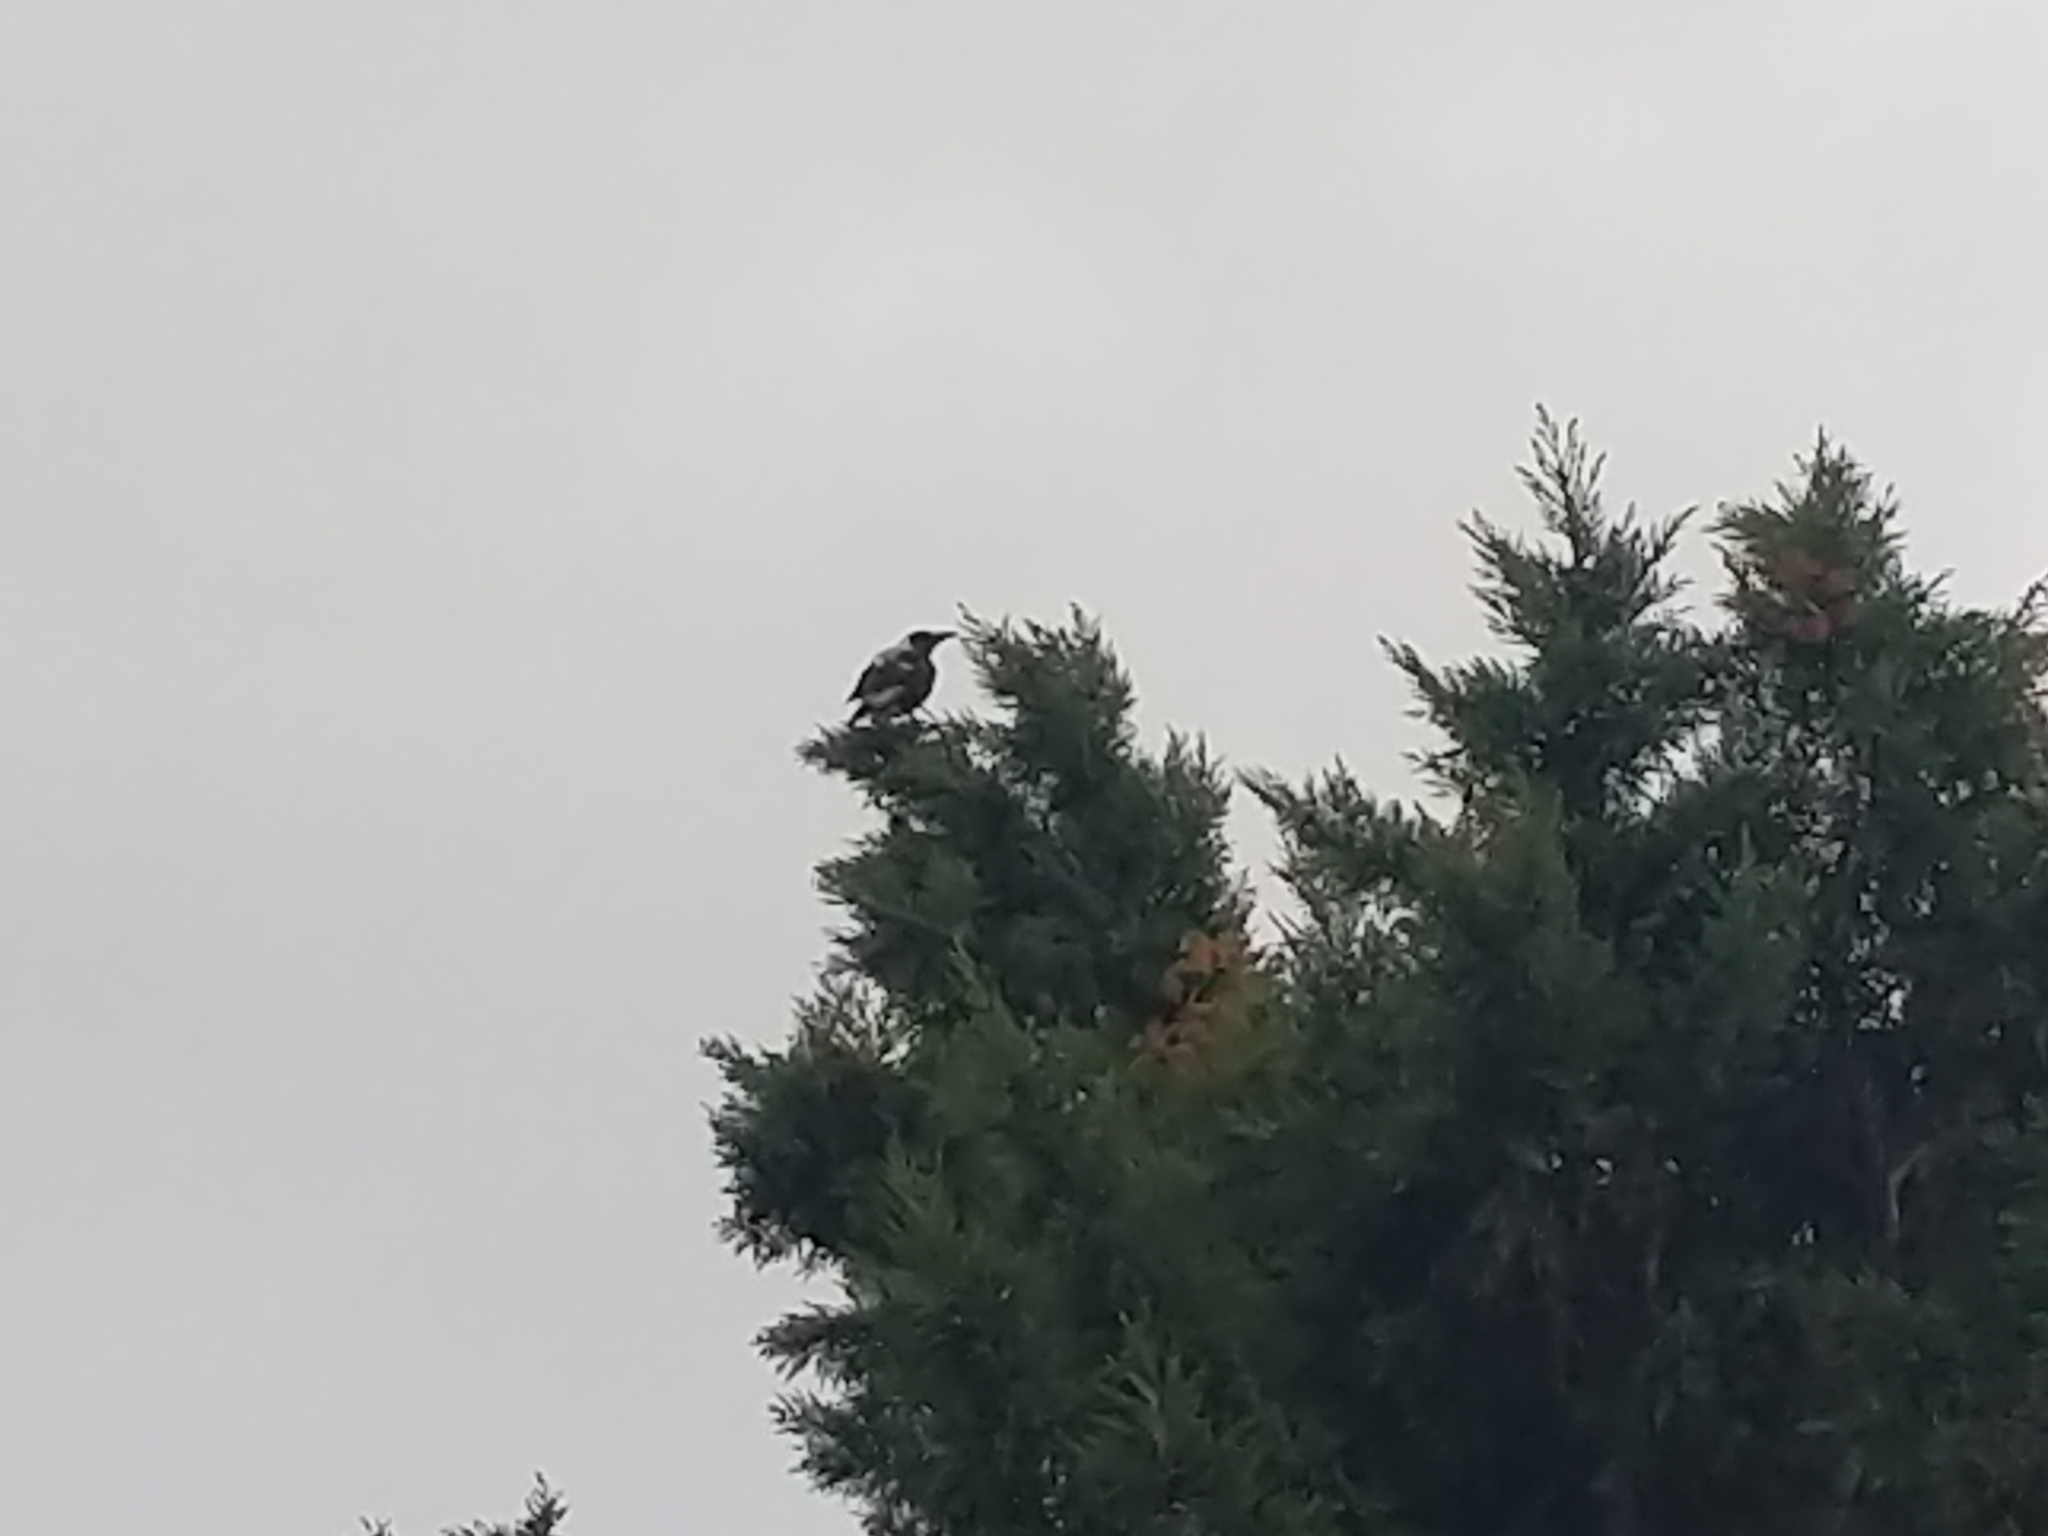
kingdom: Animalia
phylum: Chordata
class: Aves
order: Passeriformes
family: Cracticidae
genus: Gymnorhina
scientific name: Gymnorhina tibicen
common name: Australian magpie
